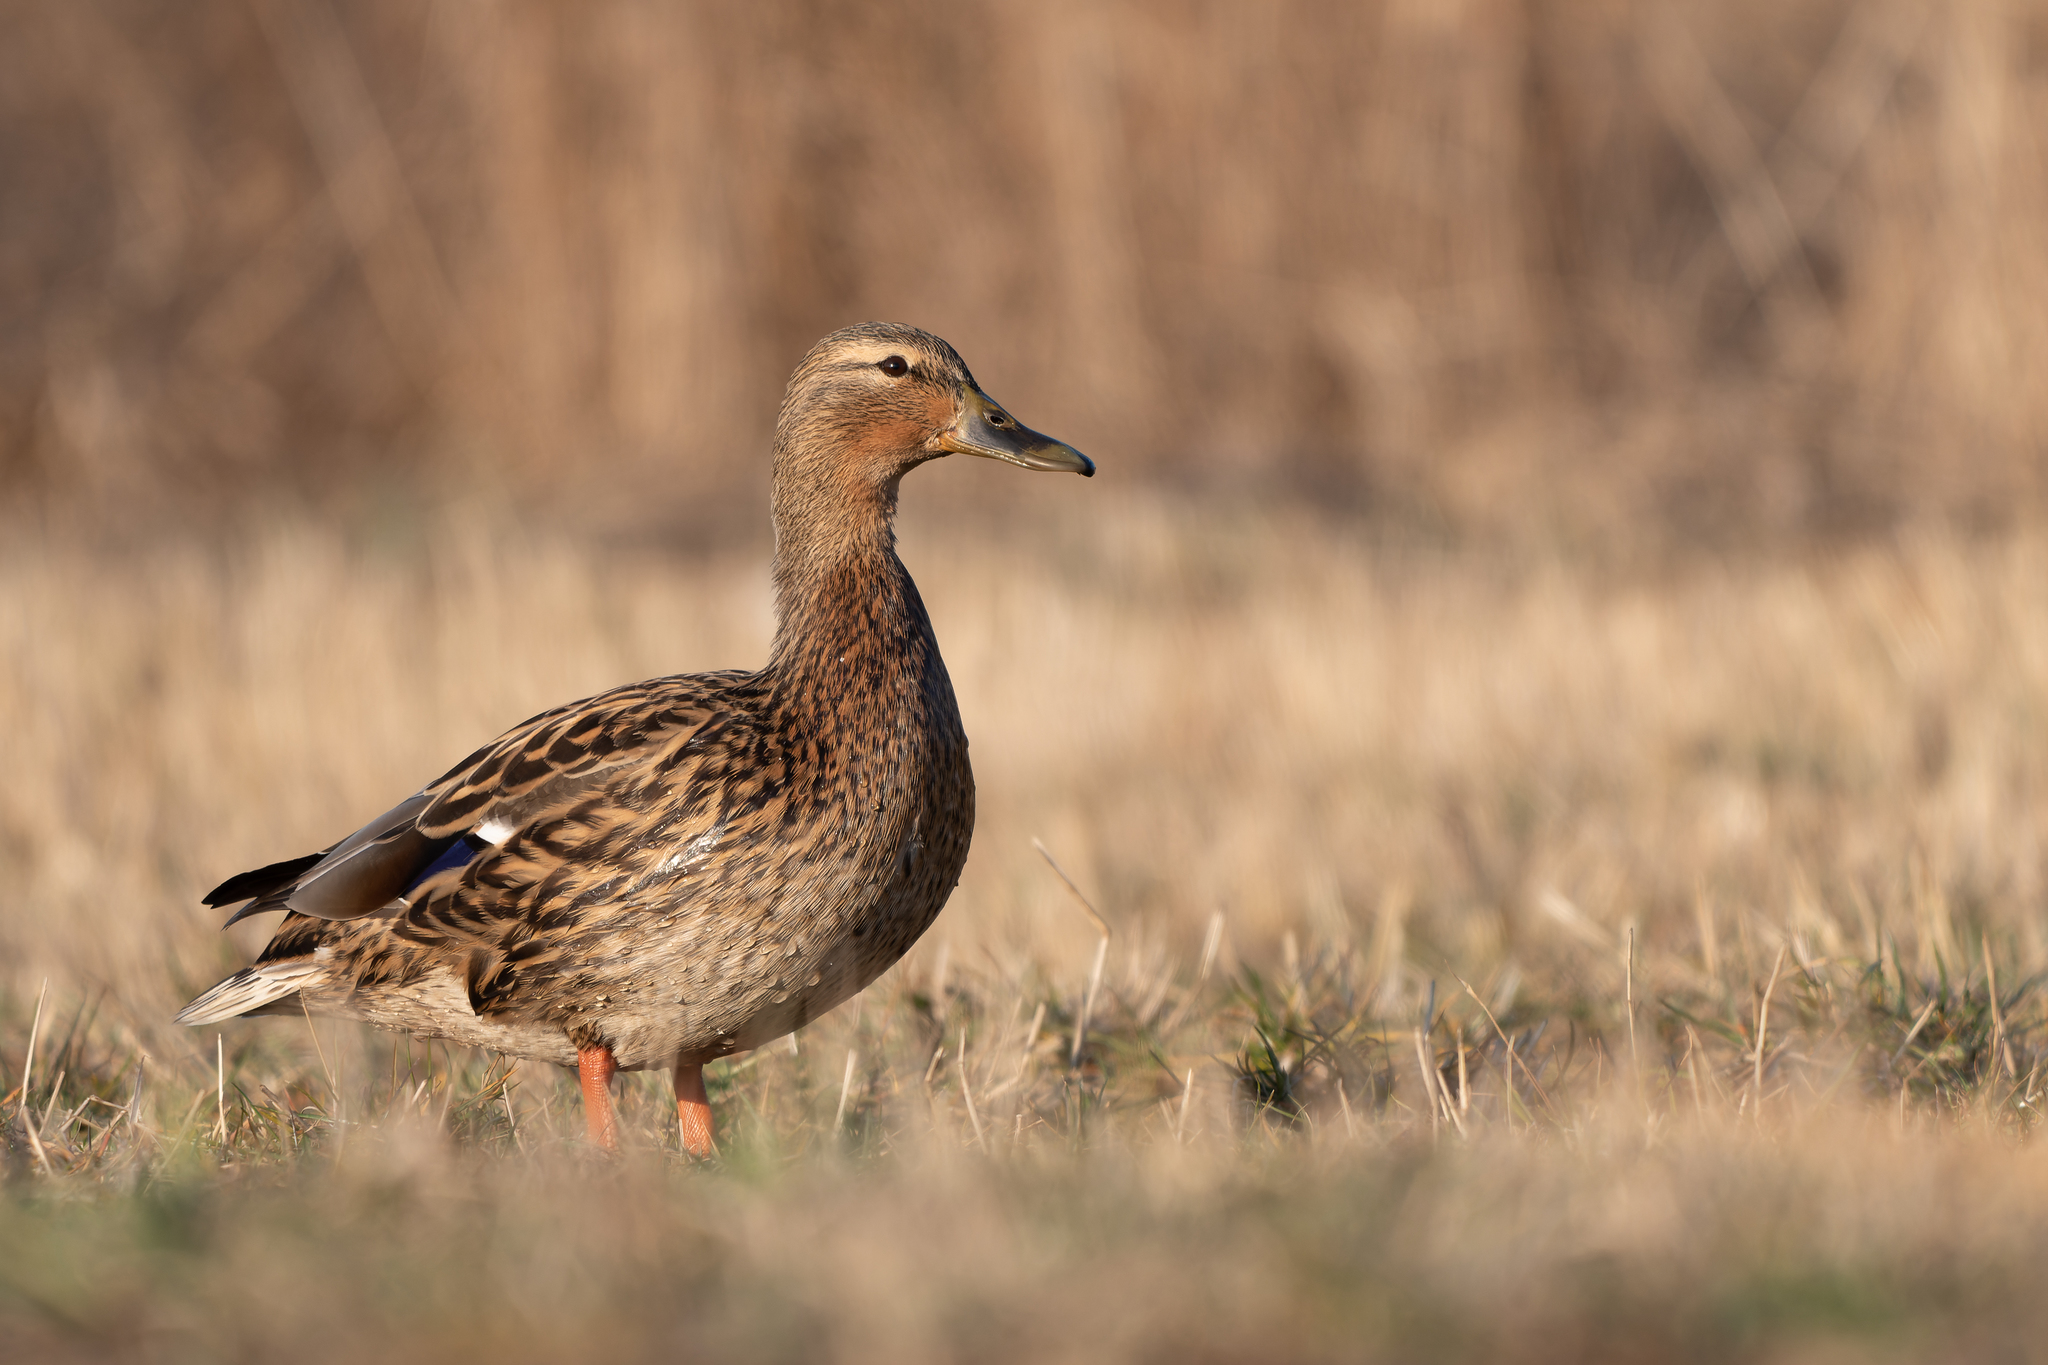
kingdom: Animalia
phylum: Chordata
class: Aves
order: Anseriformes
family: Anatidae
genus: Anas
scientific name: Anas platyrhynchos
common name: Mallard
